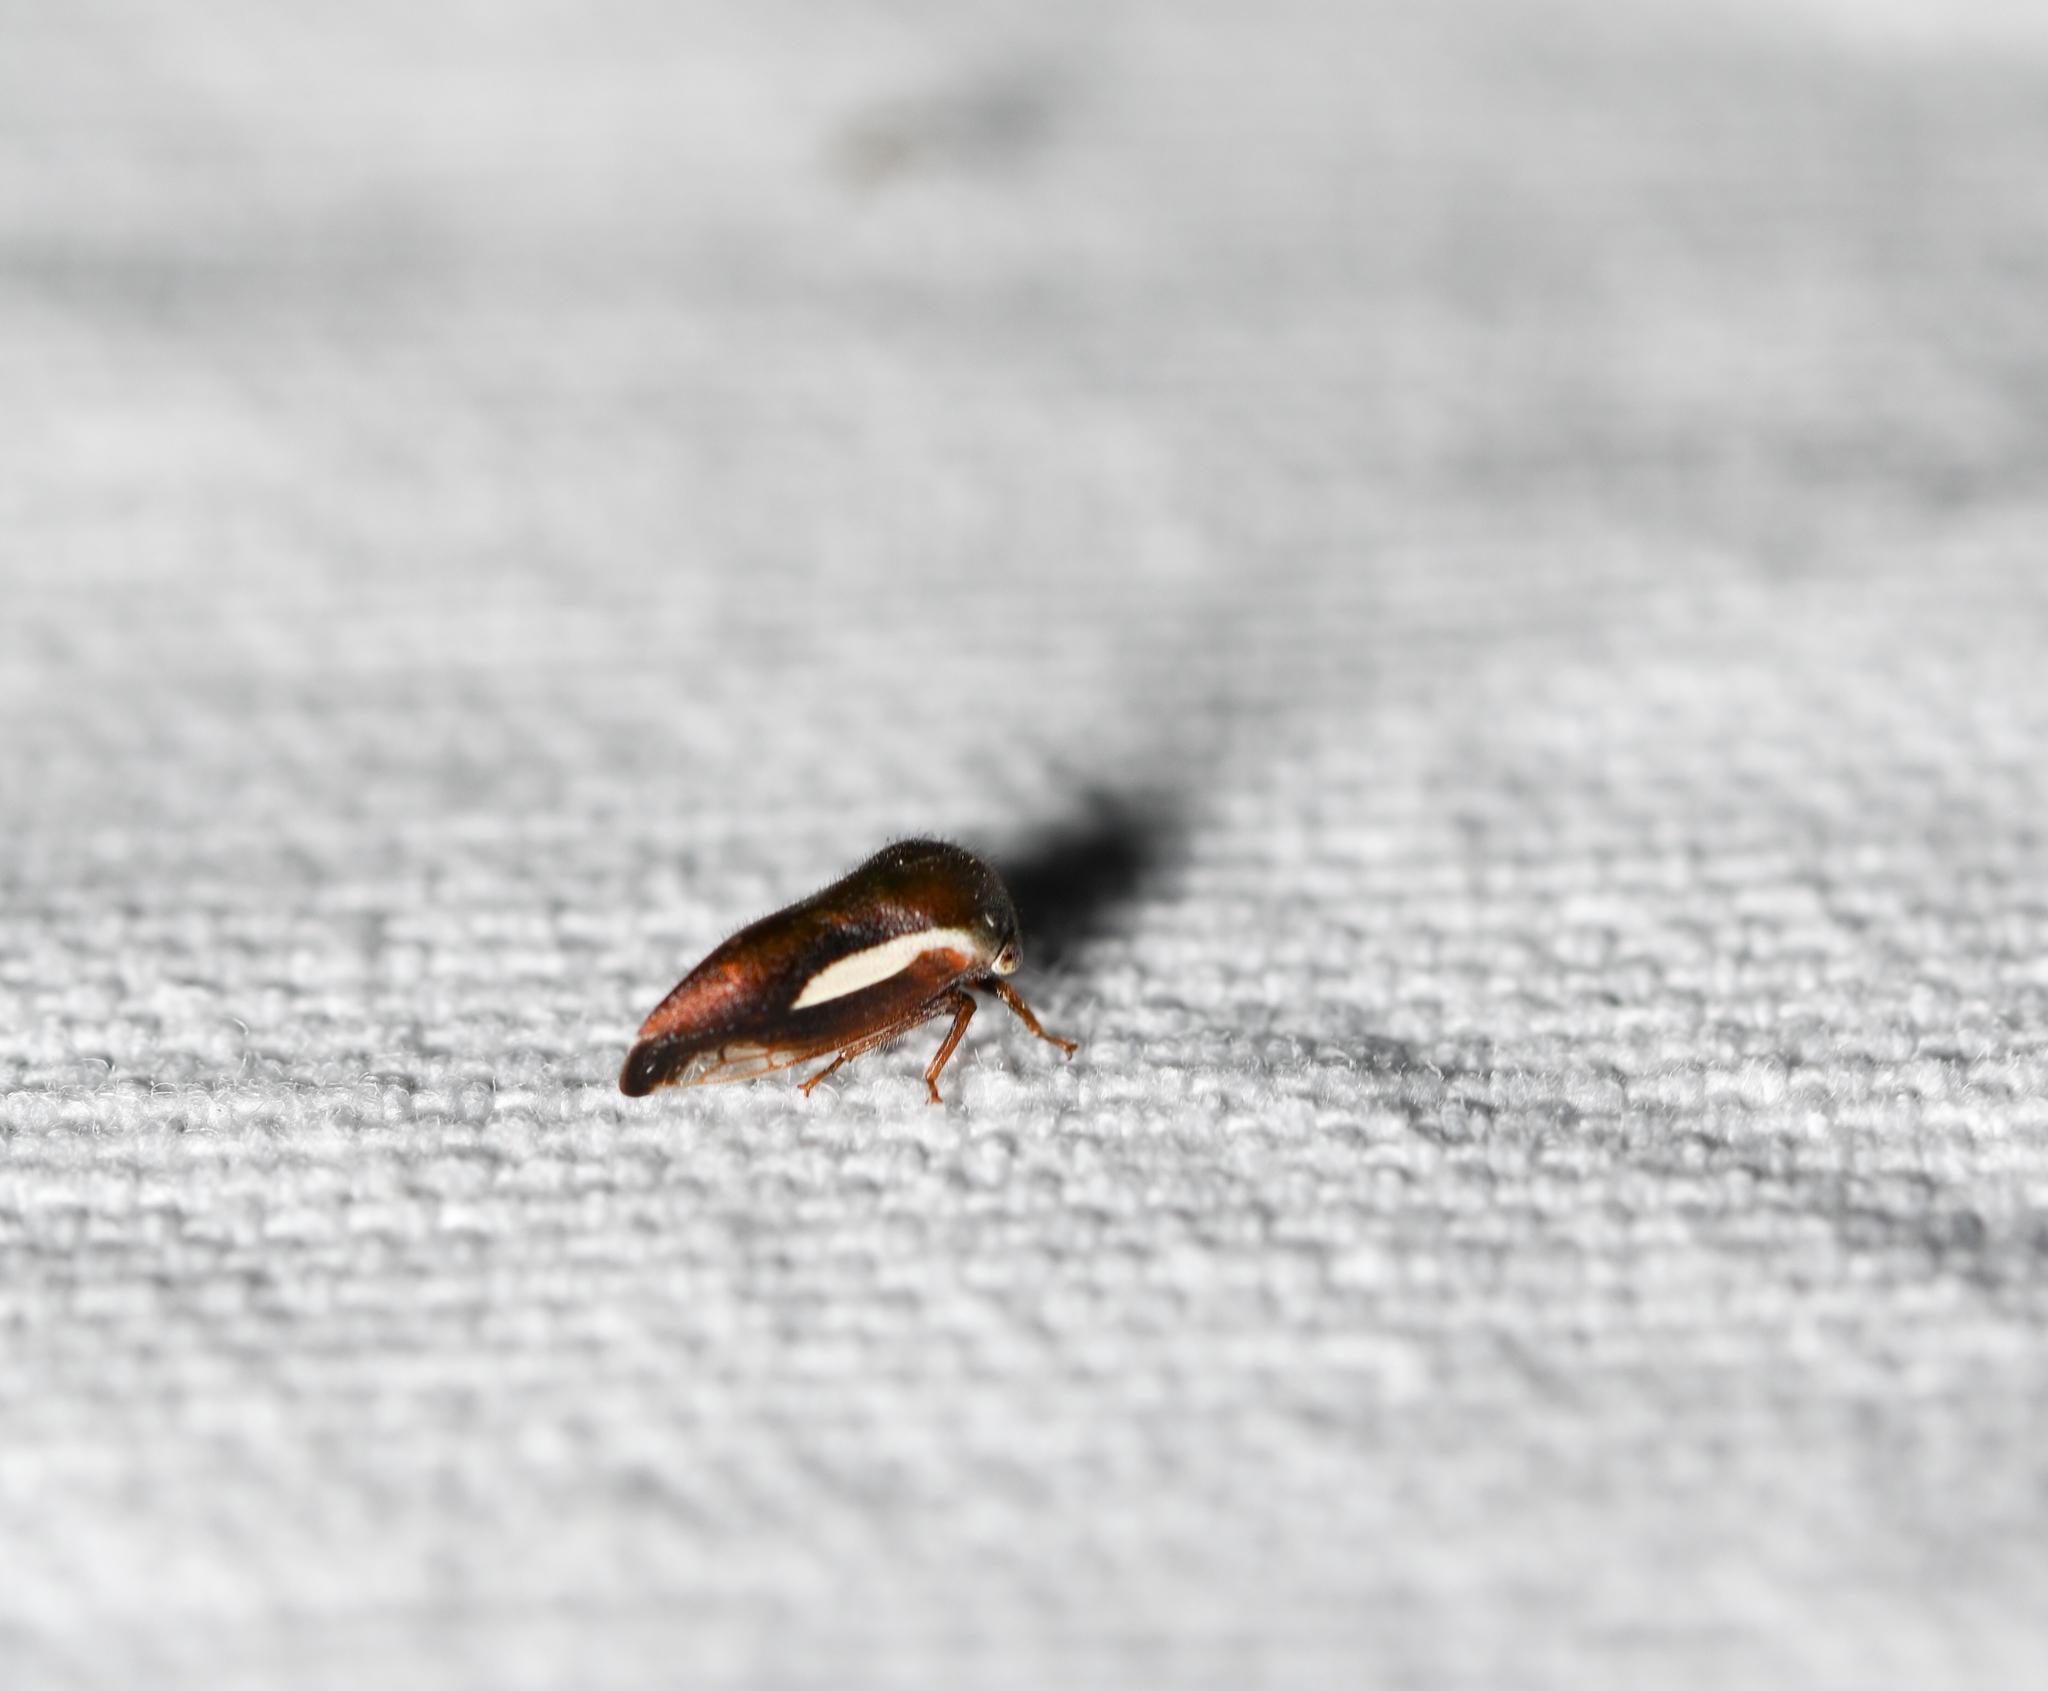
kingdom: Animalia
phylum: Arthropoda
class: Insecta
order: Hemiptera
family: Membracidae
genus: Ophiderma
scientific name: Ophiderma flavicephala
